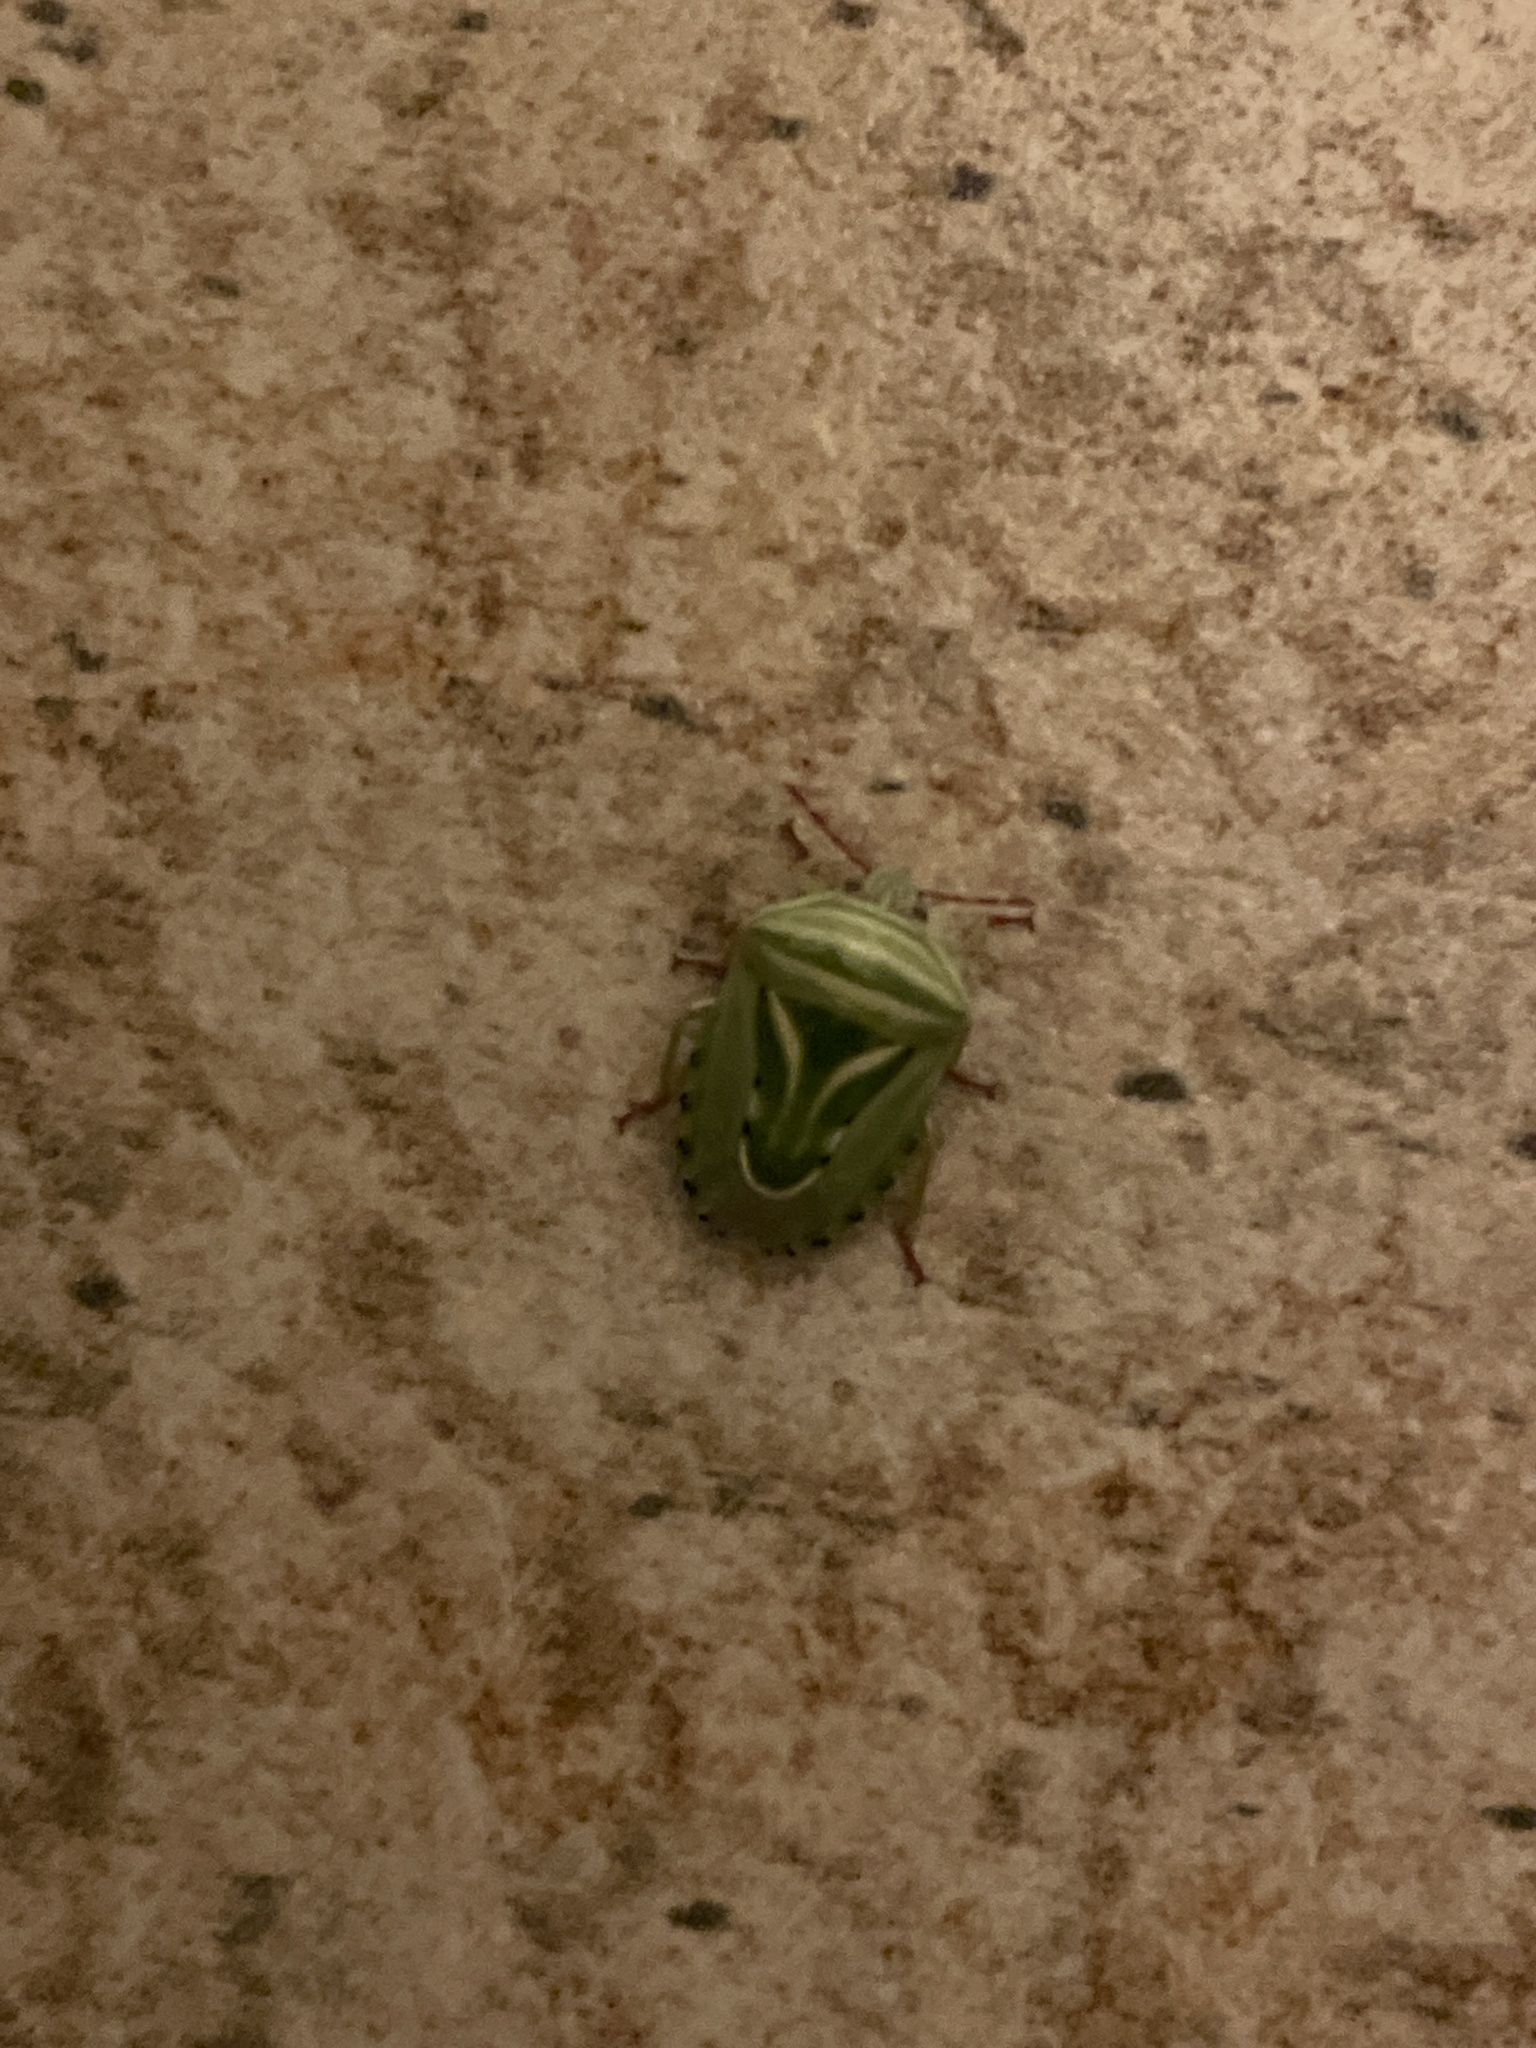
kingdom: Animalia
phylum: Arthropoda
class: Insecta
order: Hemiptera
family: Acanthosomatidae
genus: Lindbergicoris
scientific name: Lindbergicoris Platacantha lutea
